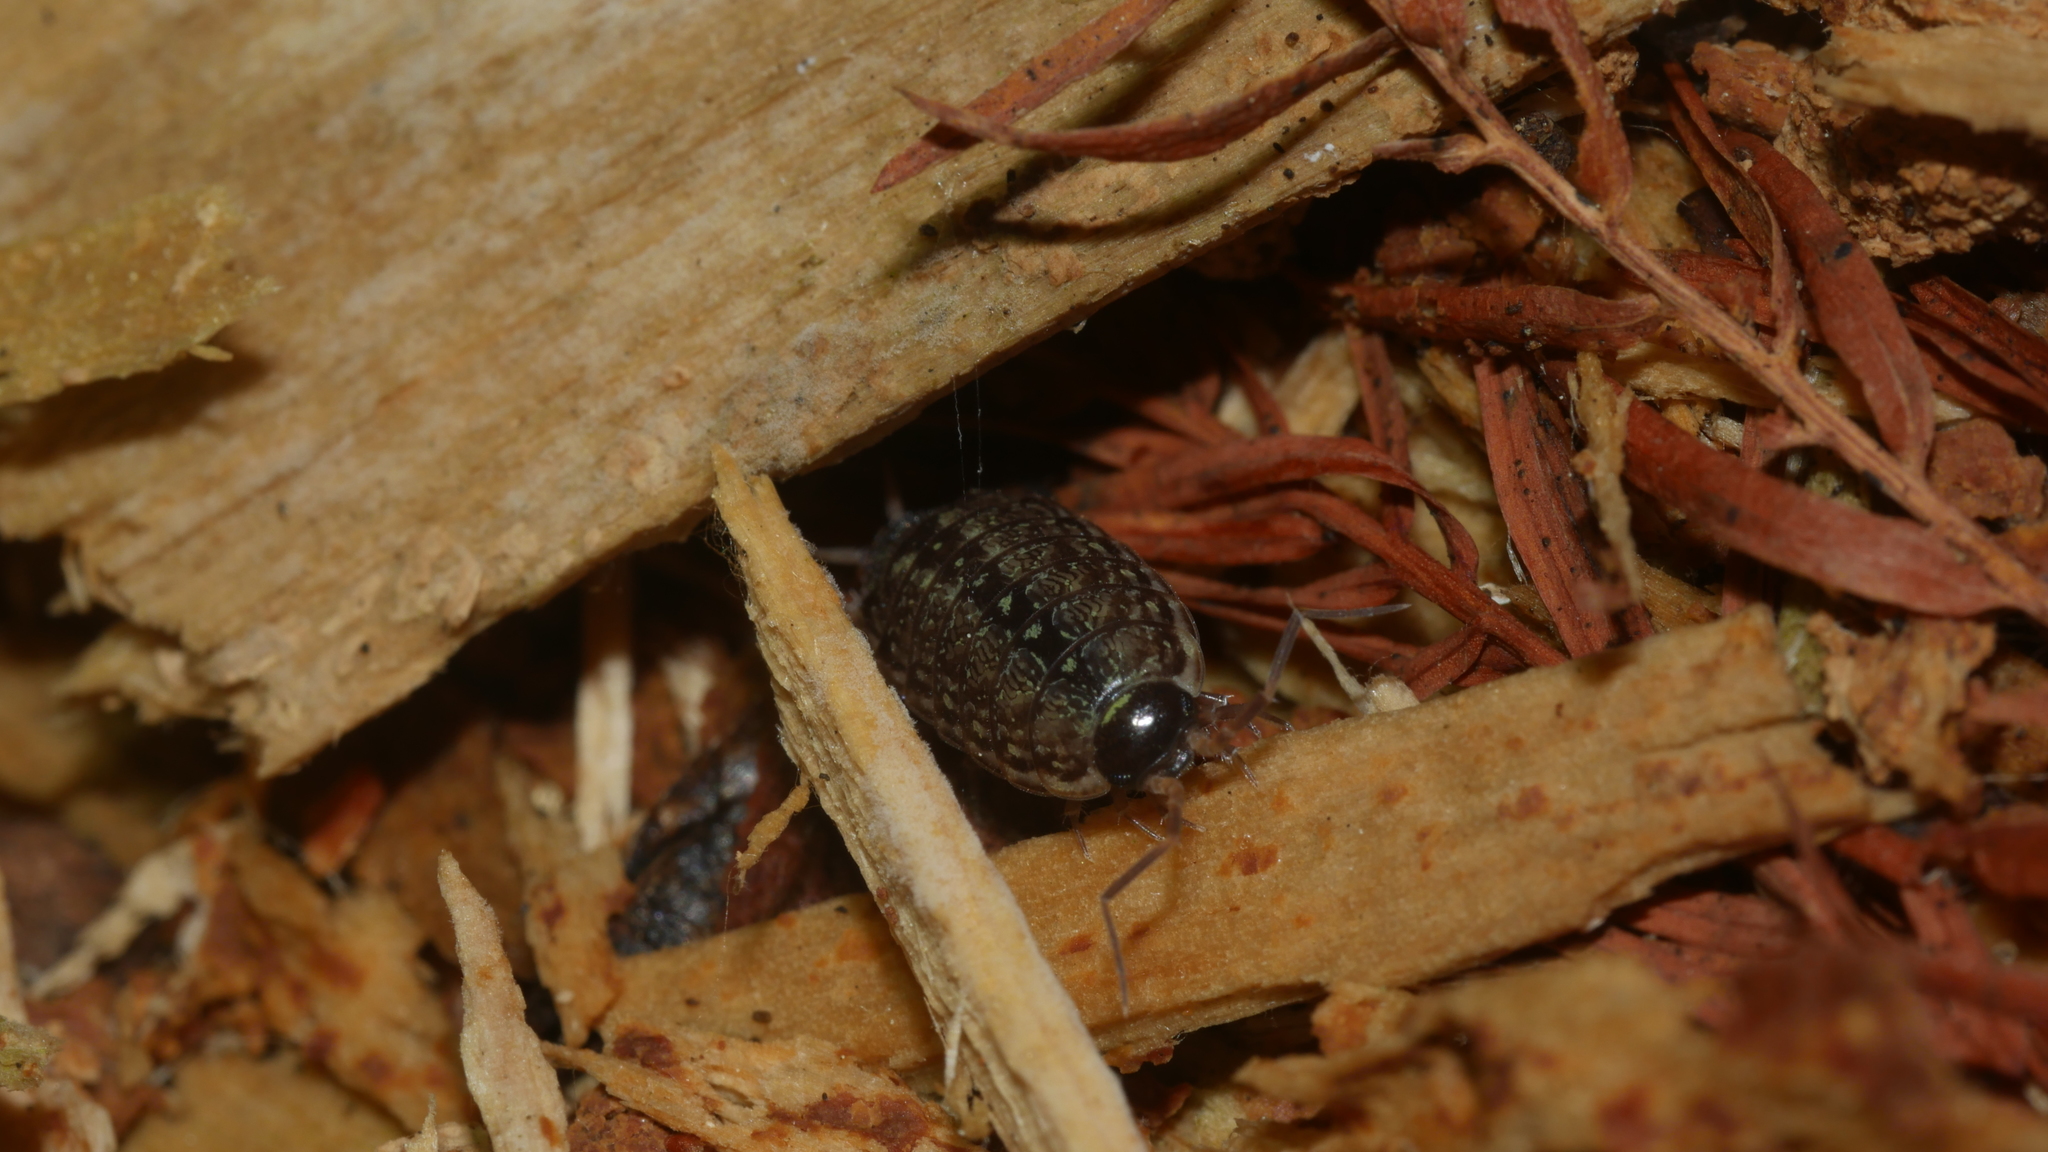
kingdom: Animalia
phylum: Arthropoda
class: Malacostraca
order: Isopoda
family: Philosciidae
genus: Philoscia
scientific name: Philoscia muscorum
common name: Common striped woodlouse
